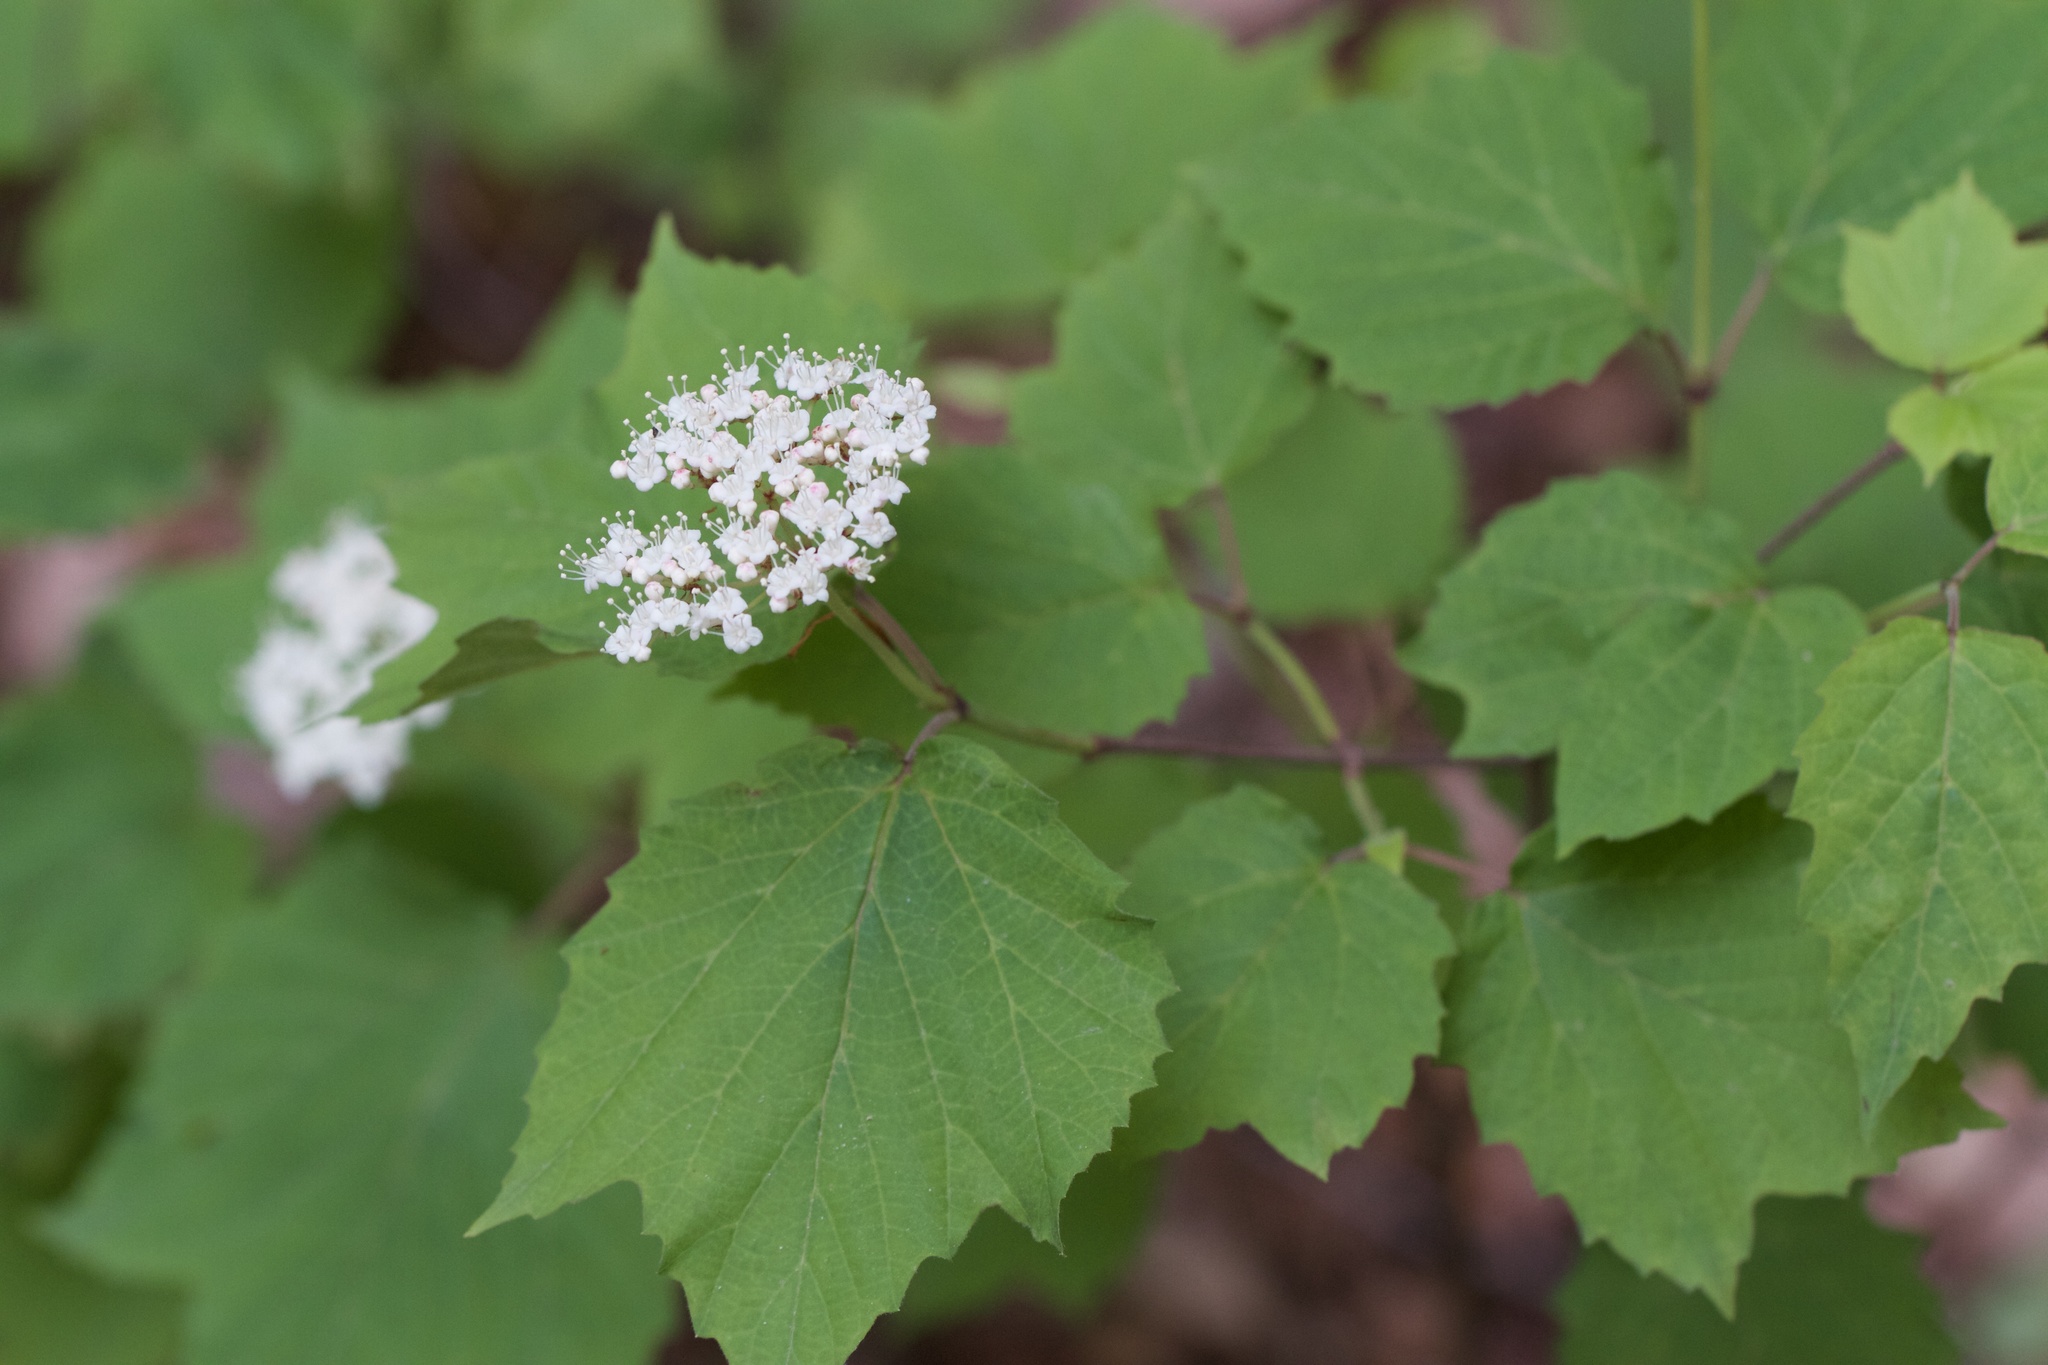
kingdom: Plantae
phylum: Tracheophyta
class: Magnoliopsida
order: Dipsacales
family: Viburnaceae
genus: Viburnum
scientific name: Viburnum acerifolium
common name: Dockmackie
